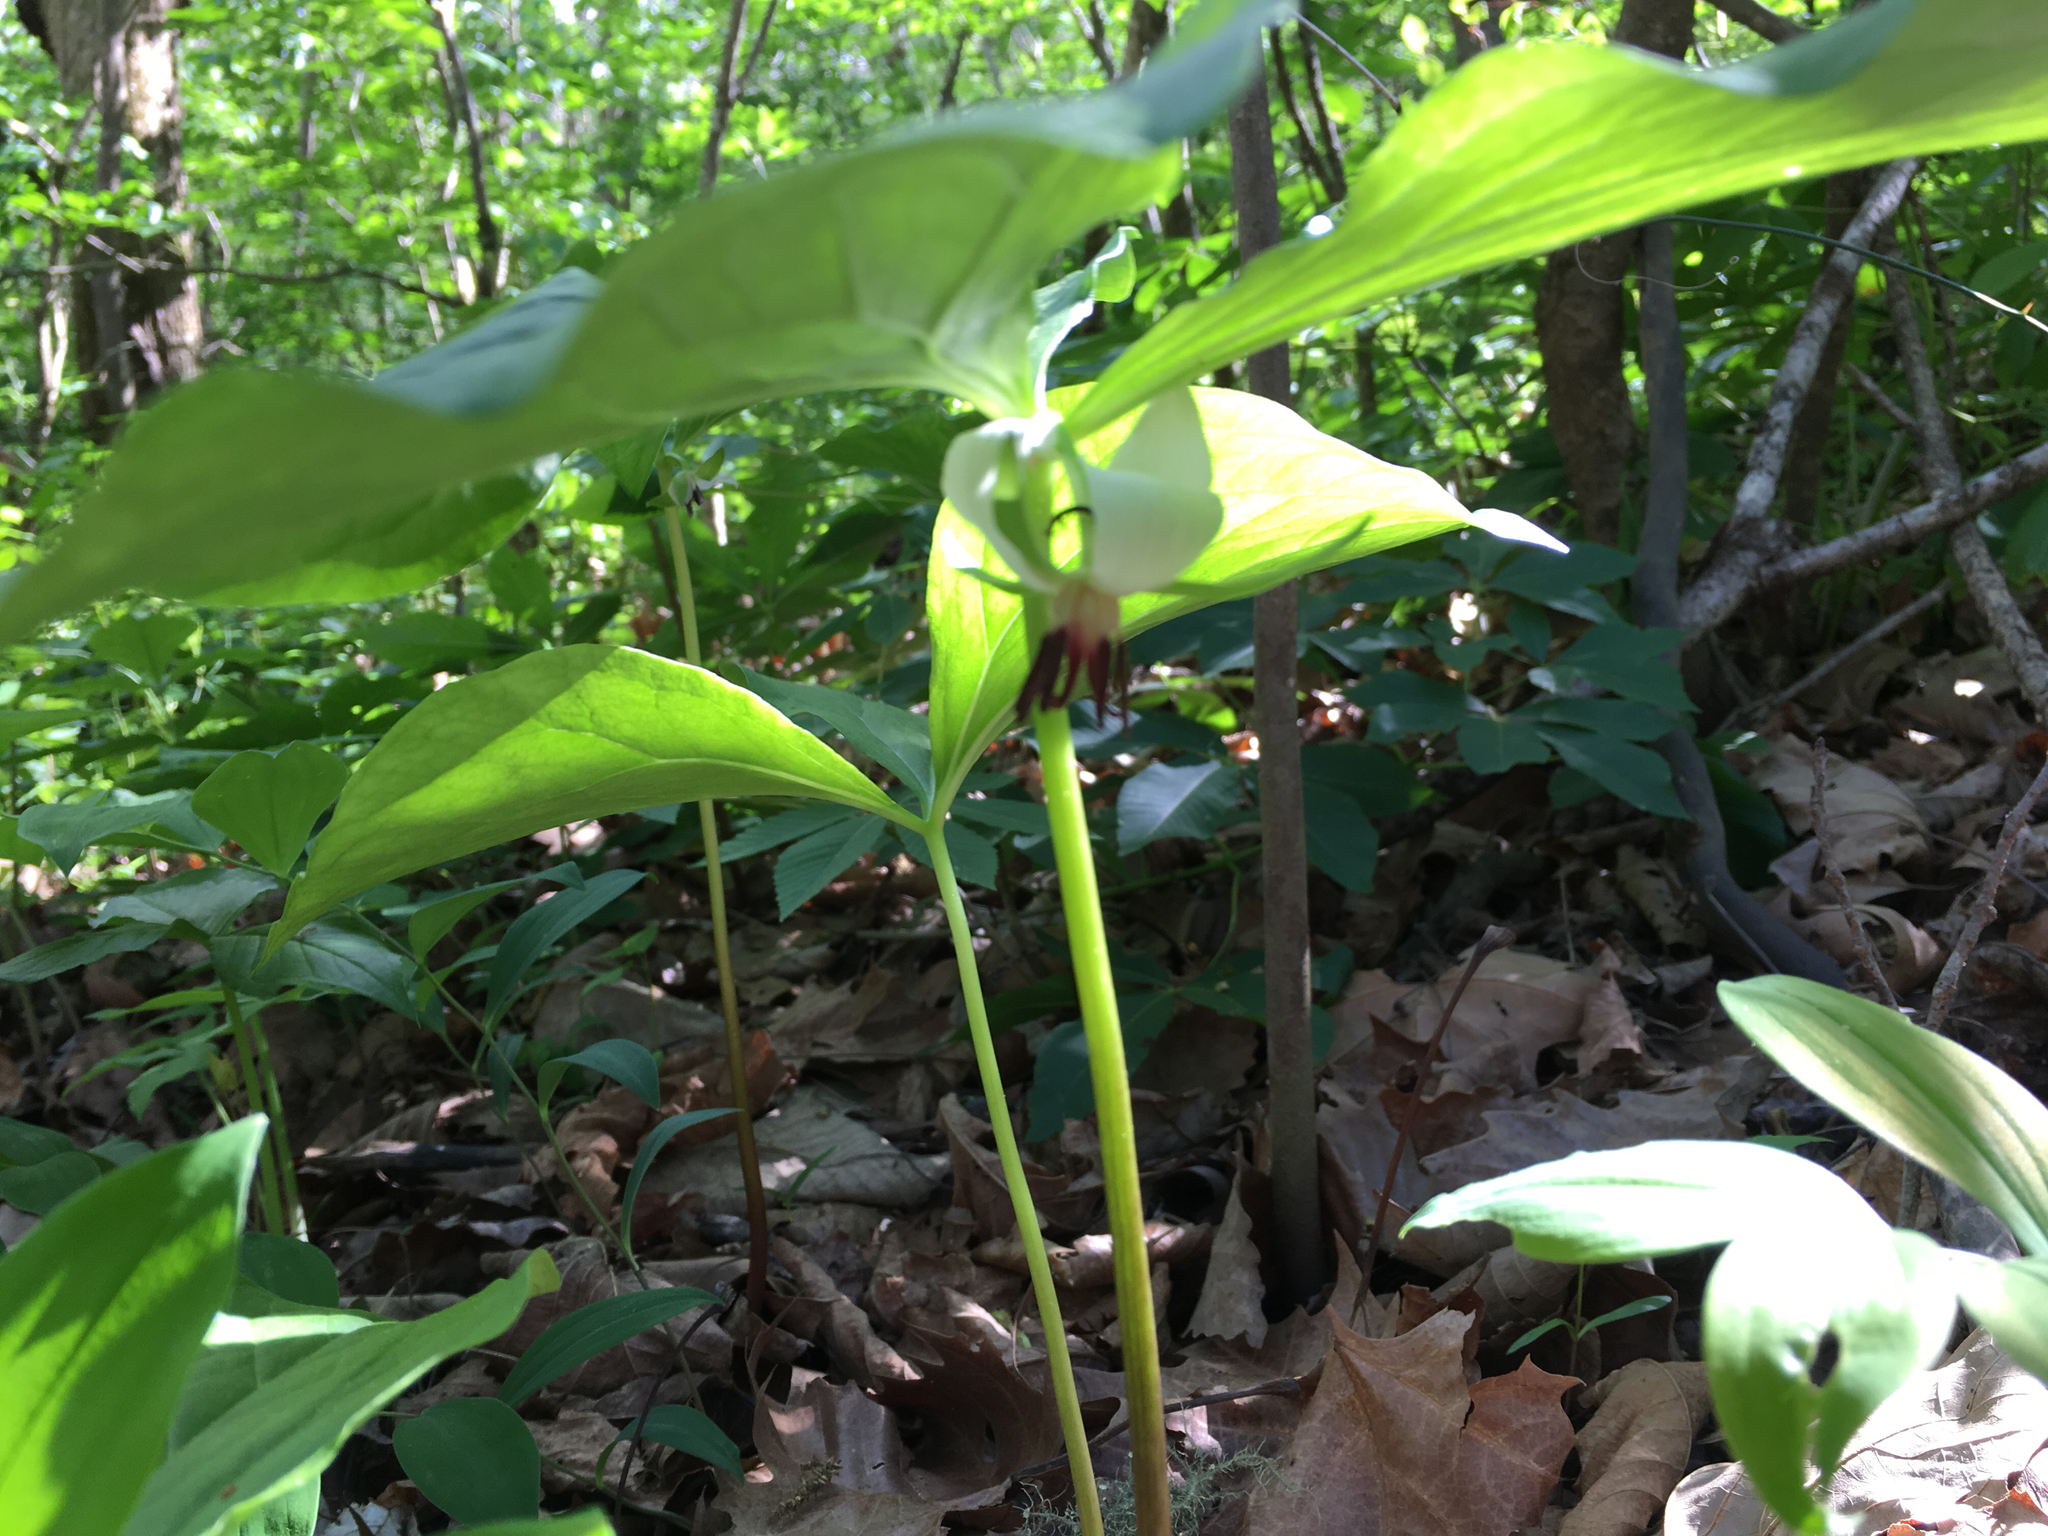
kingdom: Plantae
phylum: Tracheophyta
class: Liliopsida
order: Liliales
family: Melanthiaceae
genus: Trillium
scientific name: Trillium rugelii
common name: Ill-scented trillium
